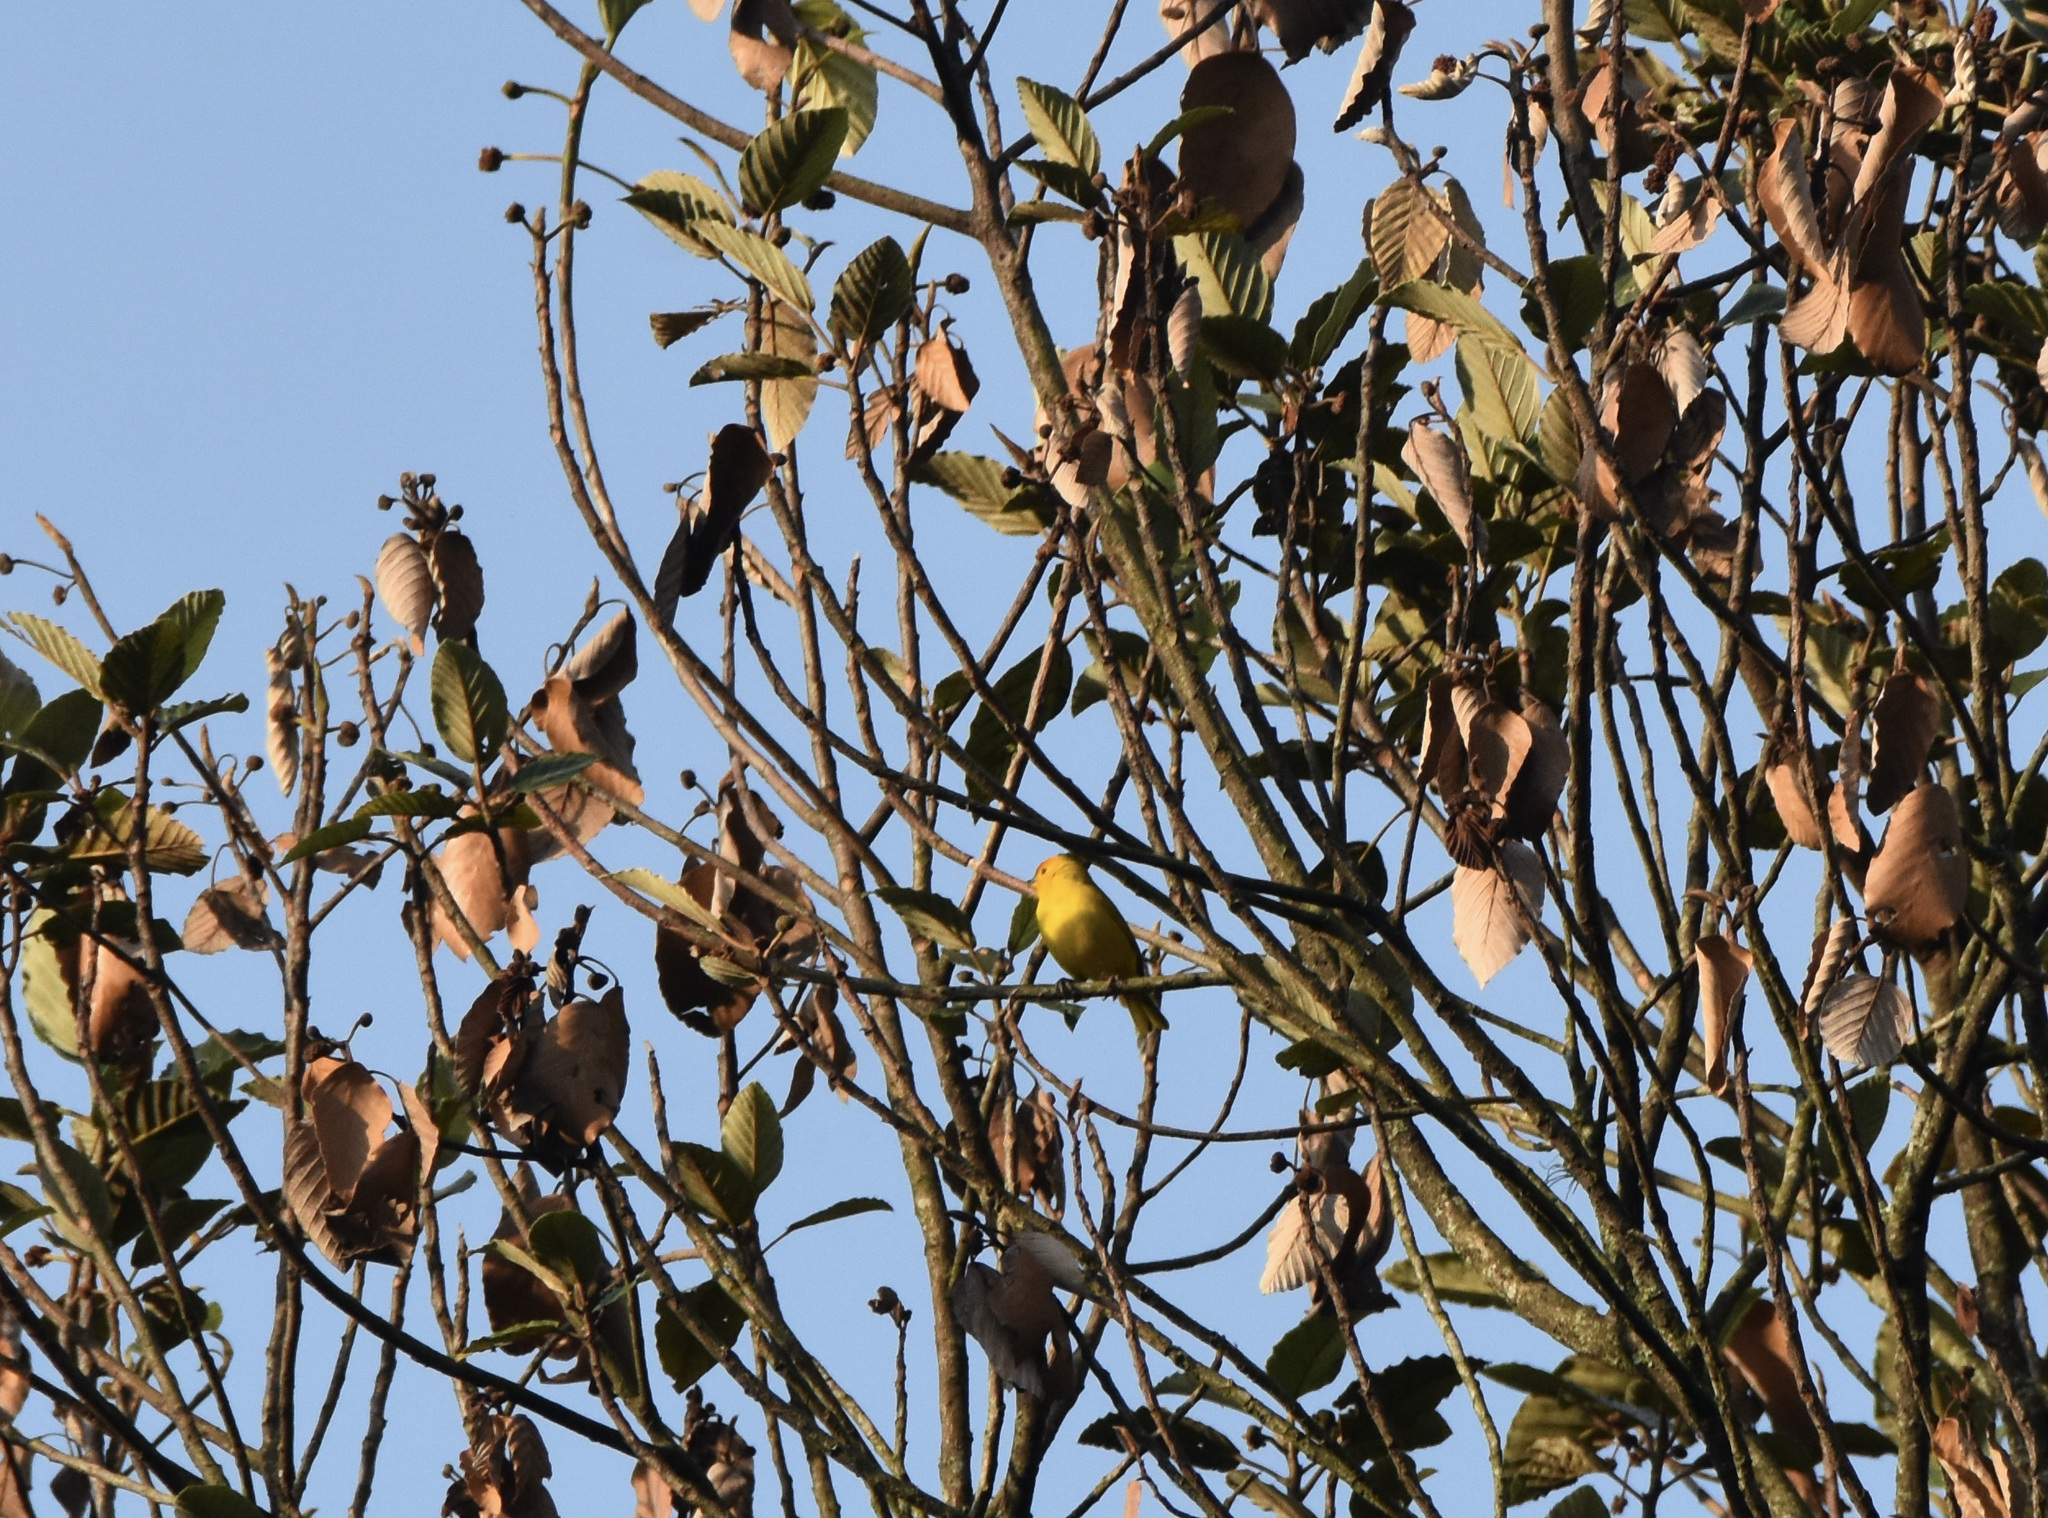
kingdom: Animalia
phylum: Chordata
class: Aves
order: Passeriformes
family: Thraupidae
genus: Sicalis
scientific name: Sicalis flaveola
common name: Saffron finch
